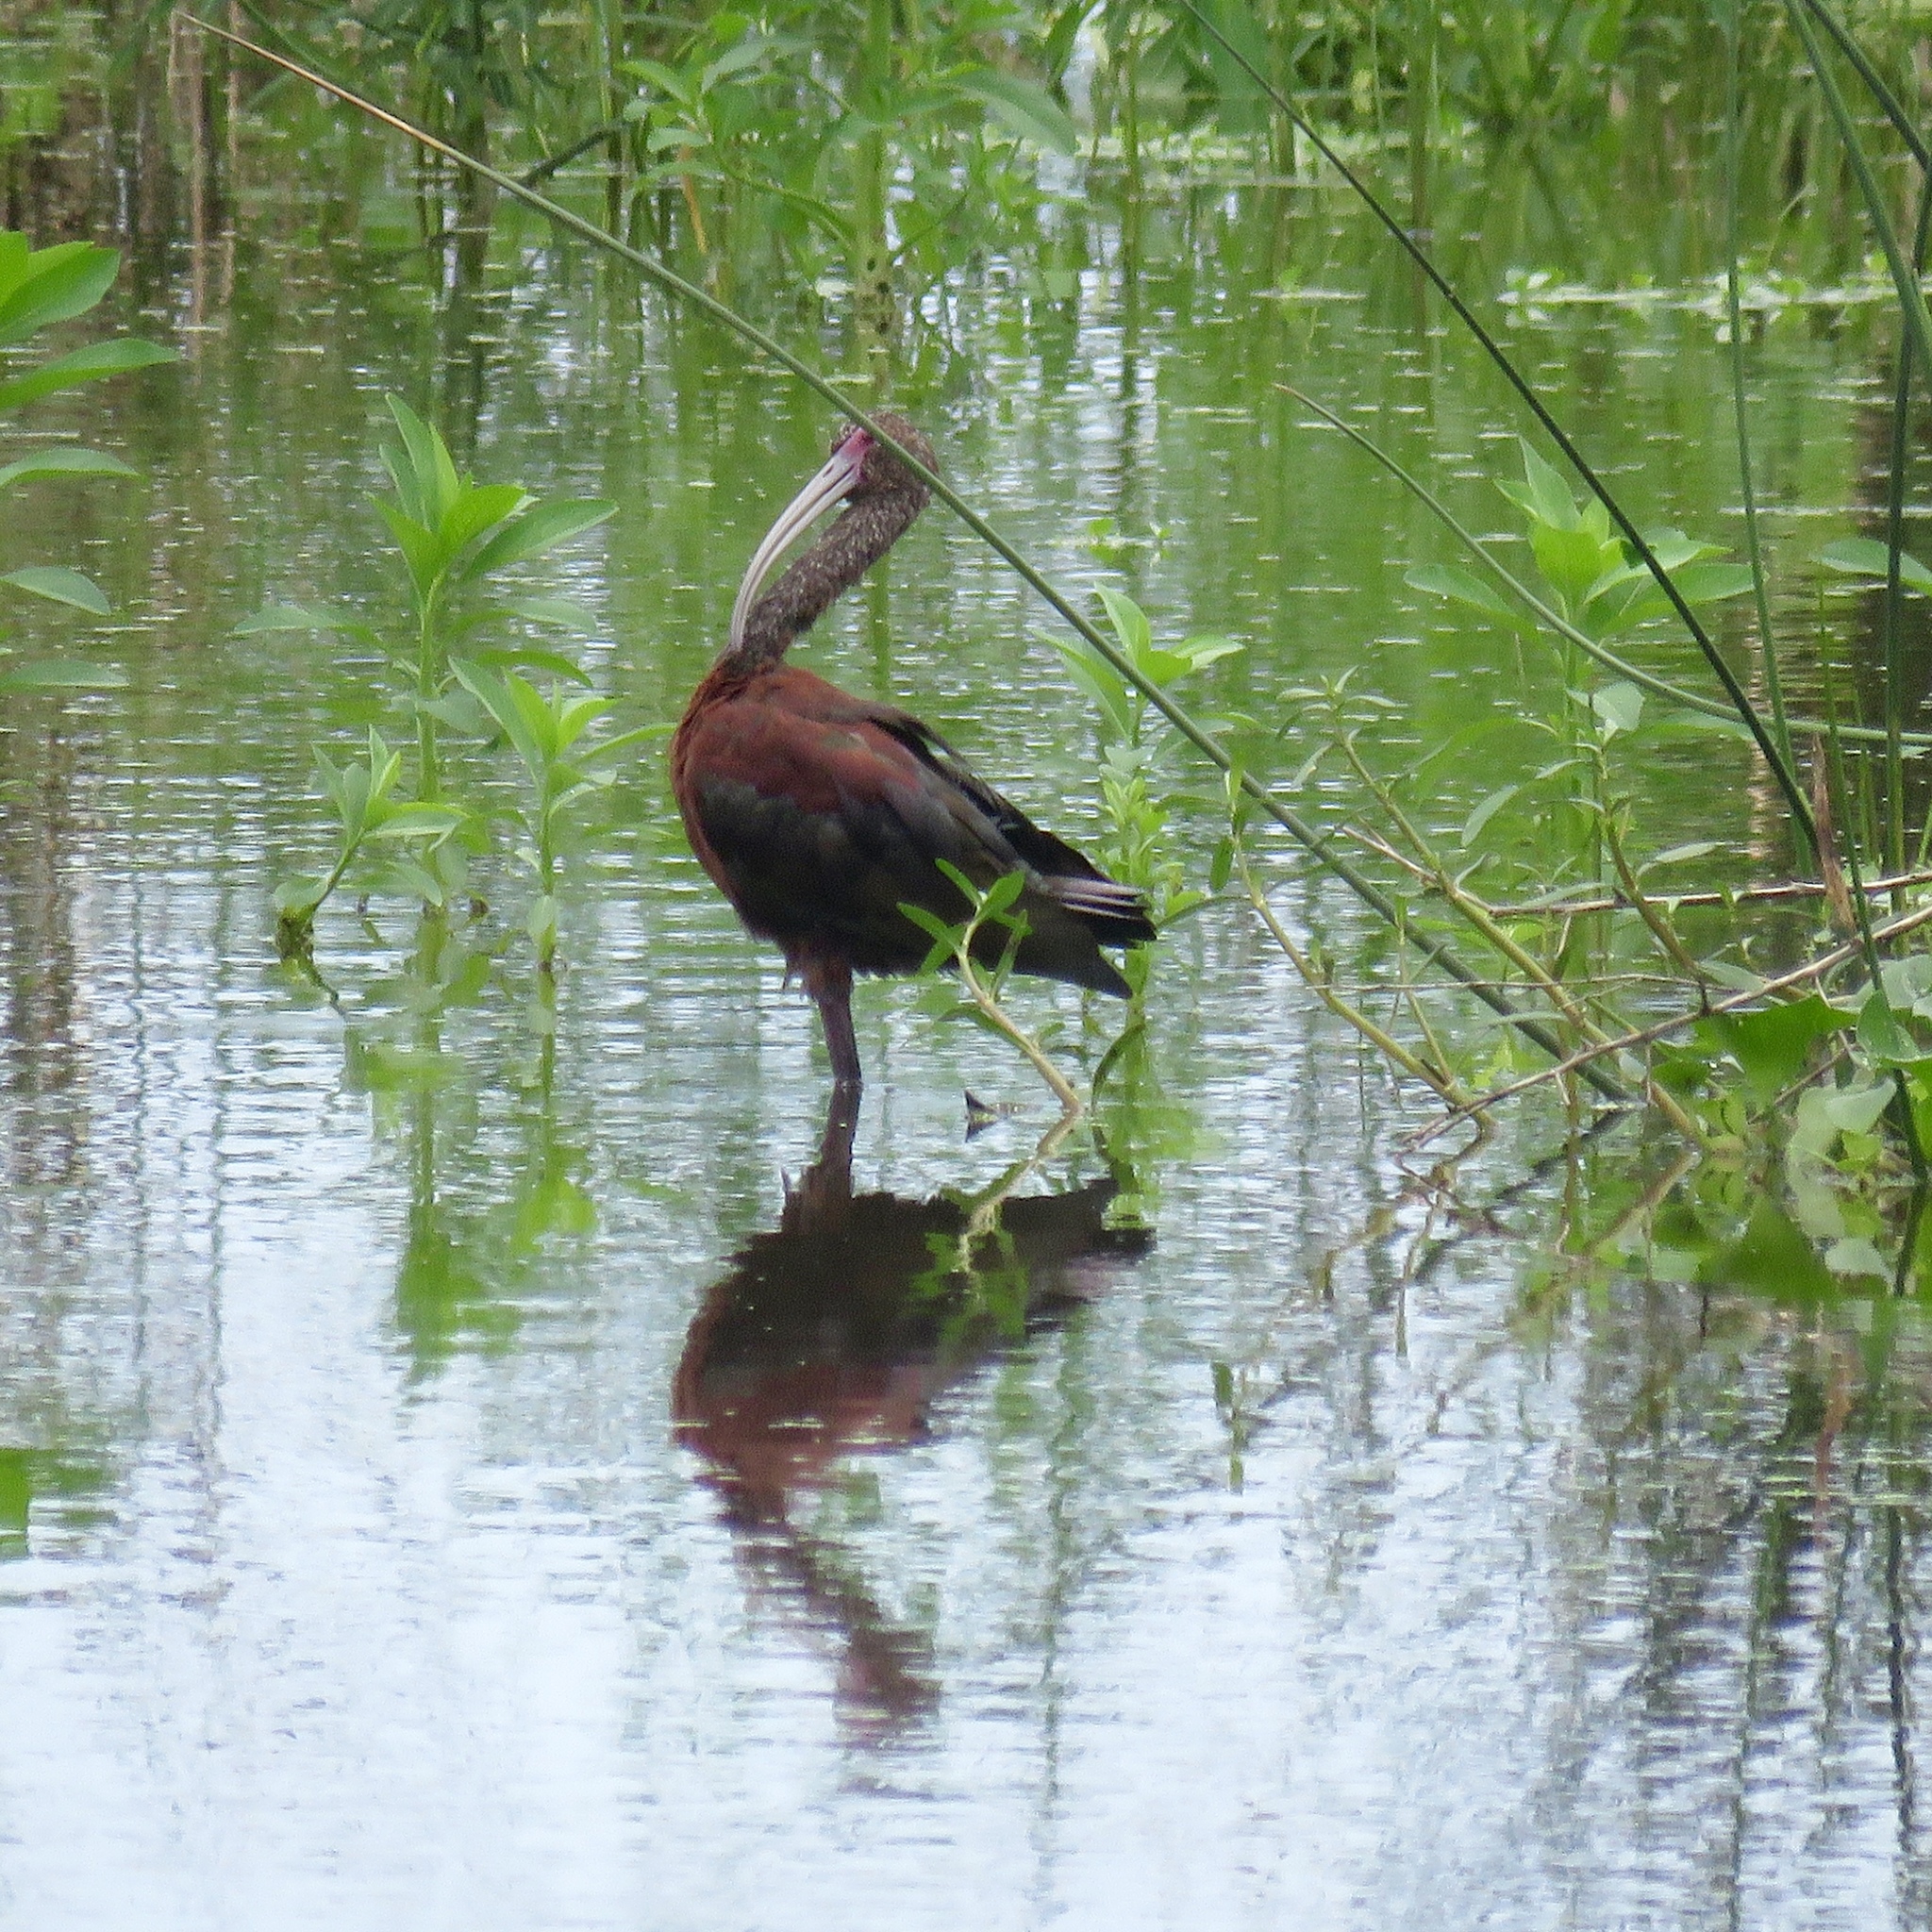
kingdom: Animalia
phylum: Chordata
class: Aves
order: Pelecaniformes
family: Threskiornithidae
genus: Plegadis
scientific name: Plegadis chihi
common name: White-faced ibis
